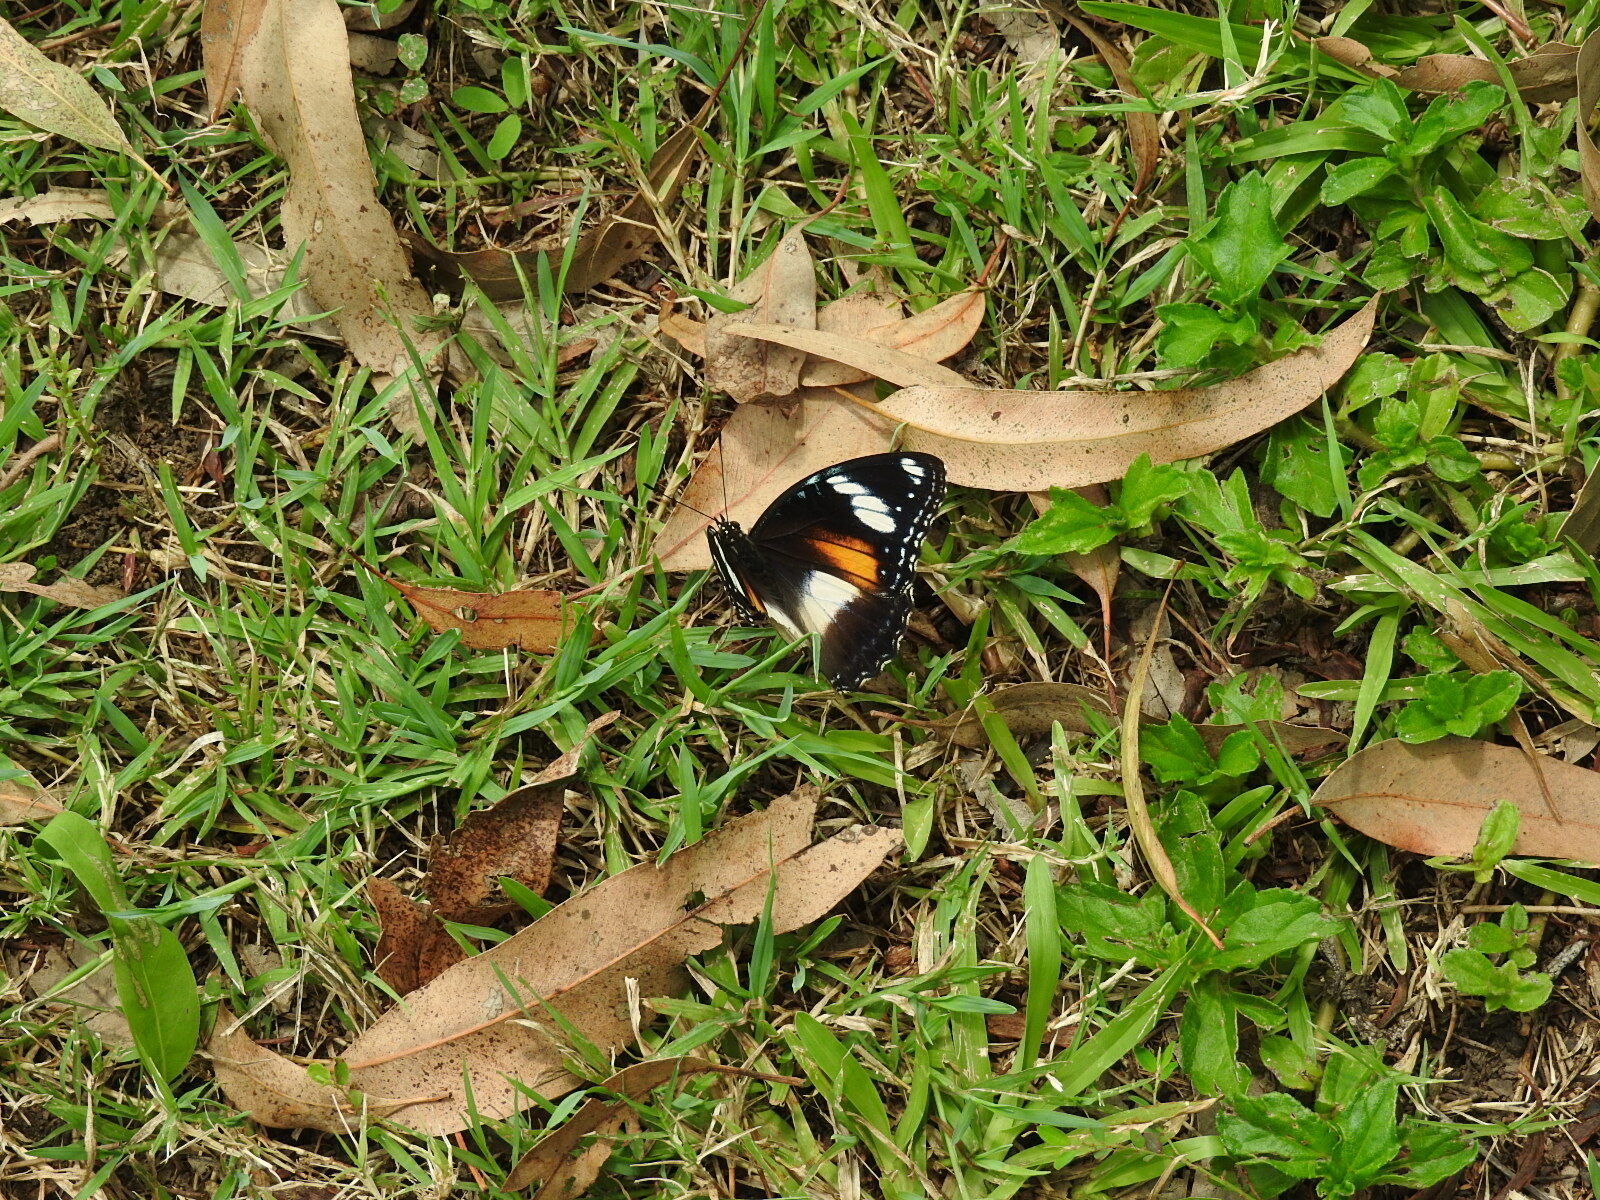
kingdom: Animalia
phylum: Arthropoda
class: Insecta
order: Lepidoptera
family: Nymphalidae
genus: Hypolimnas
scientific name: Hypolimnas bolina
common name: Great eggfly
